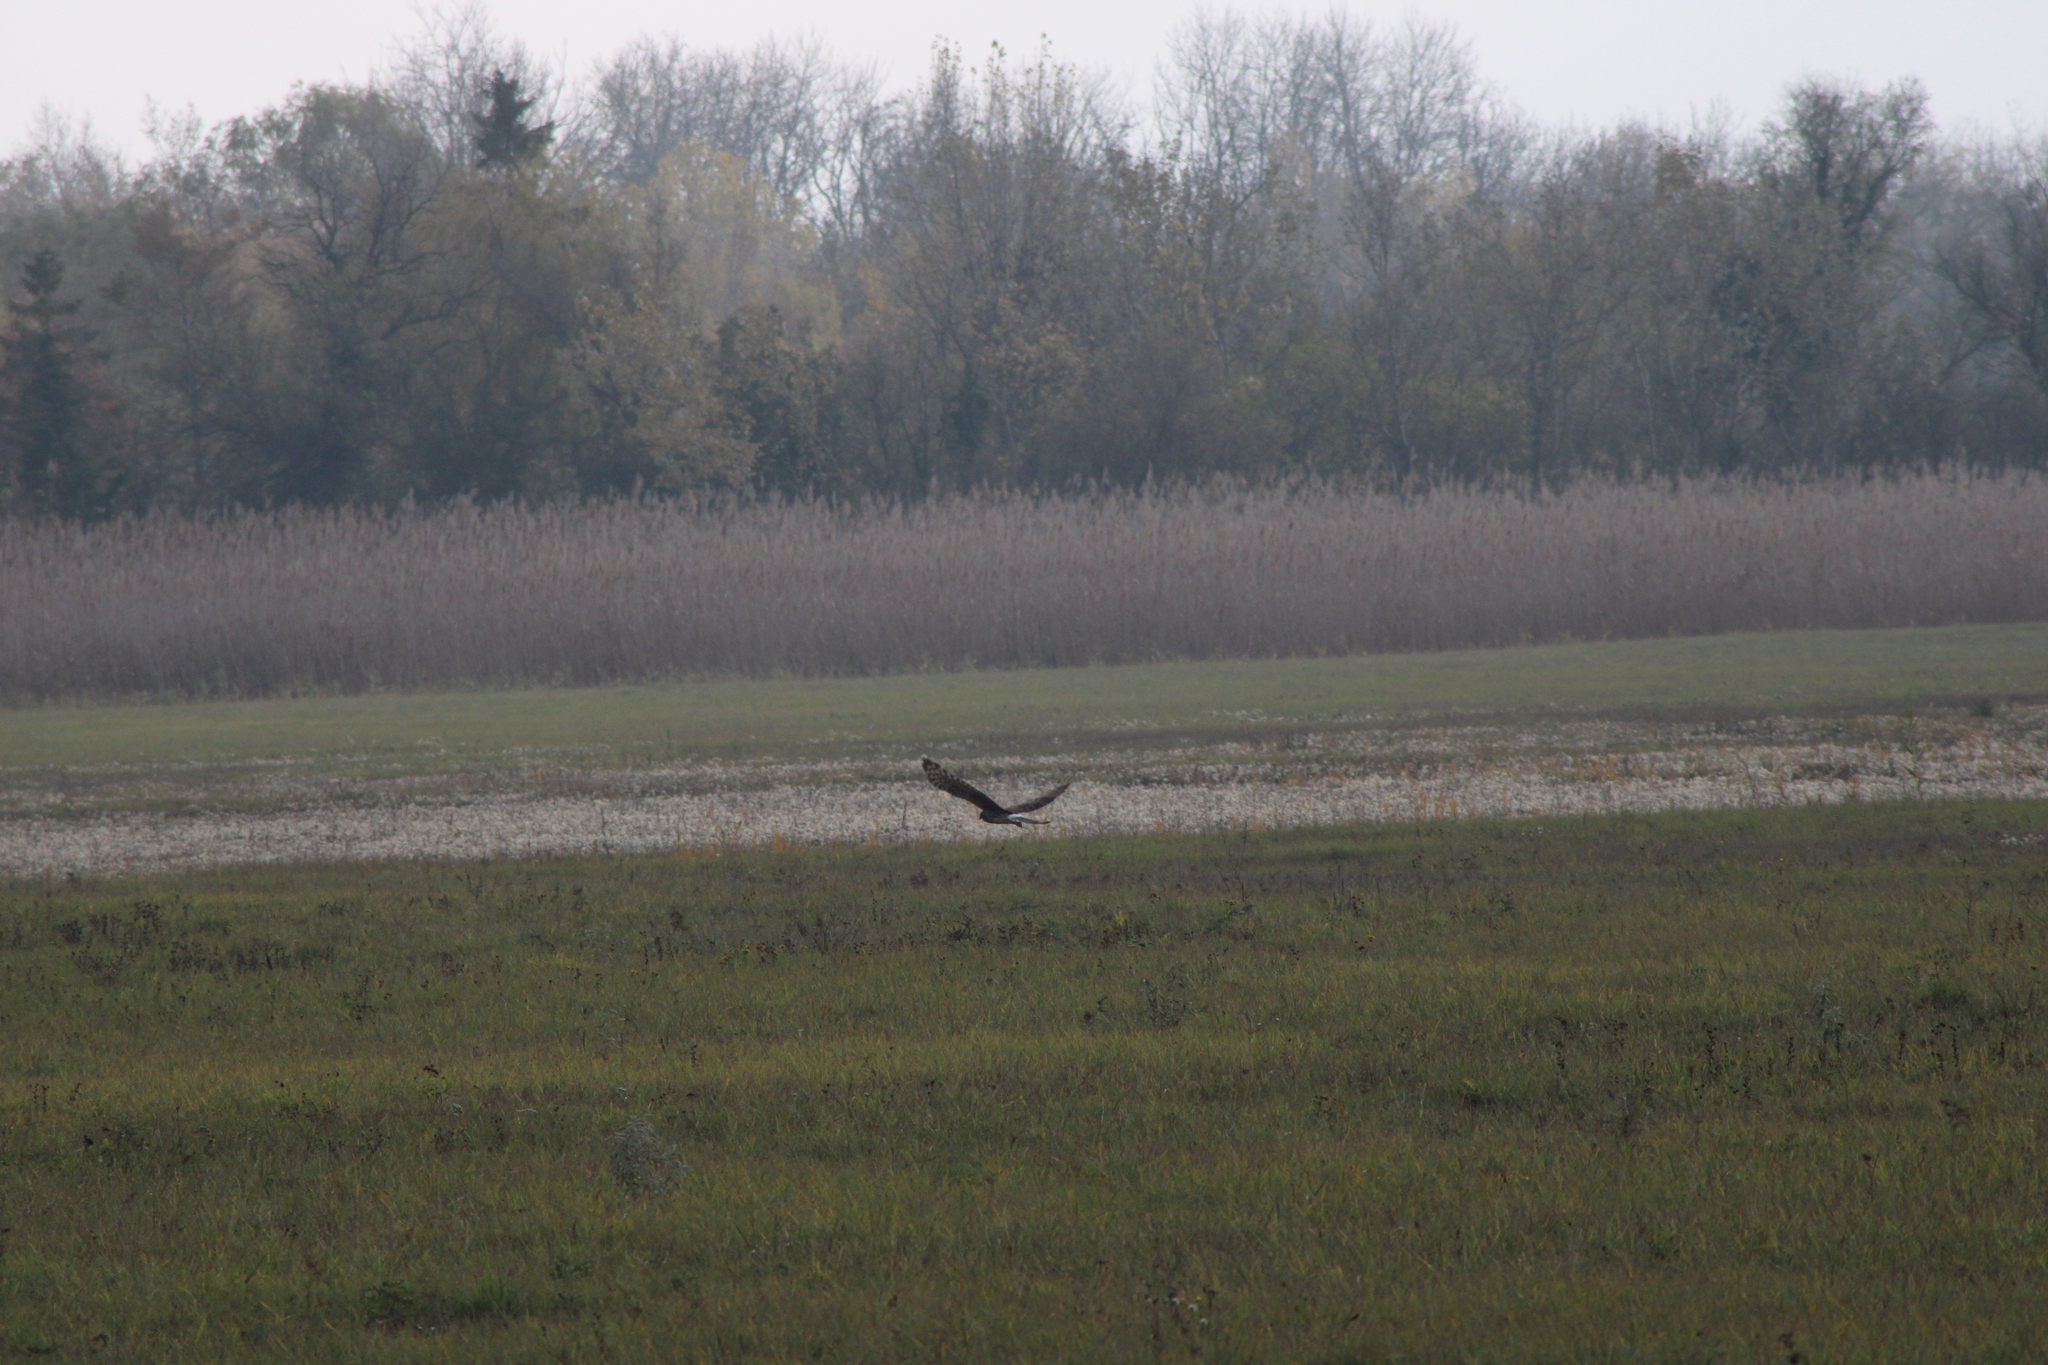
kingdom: Animalia
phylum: Chordata
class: Aves
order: Accipitriformes
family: Accipitridae
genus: Circus
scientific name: Circus cyaneus
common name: Hen harrier
